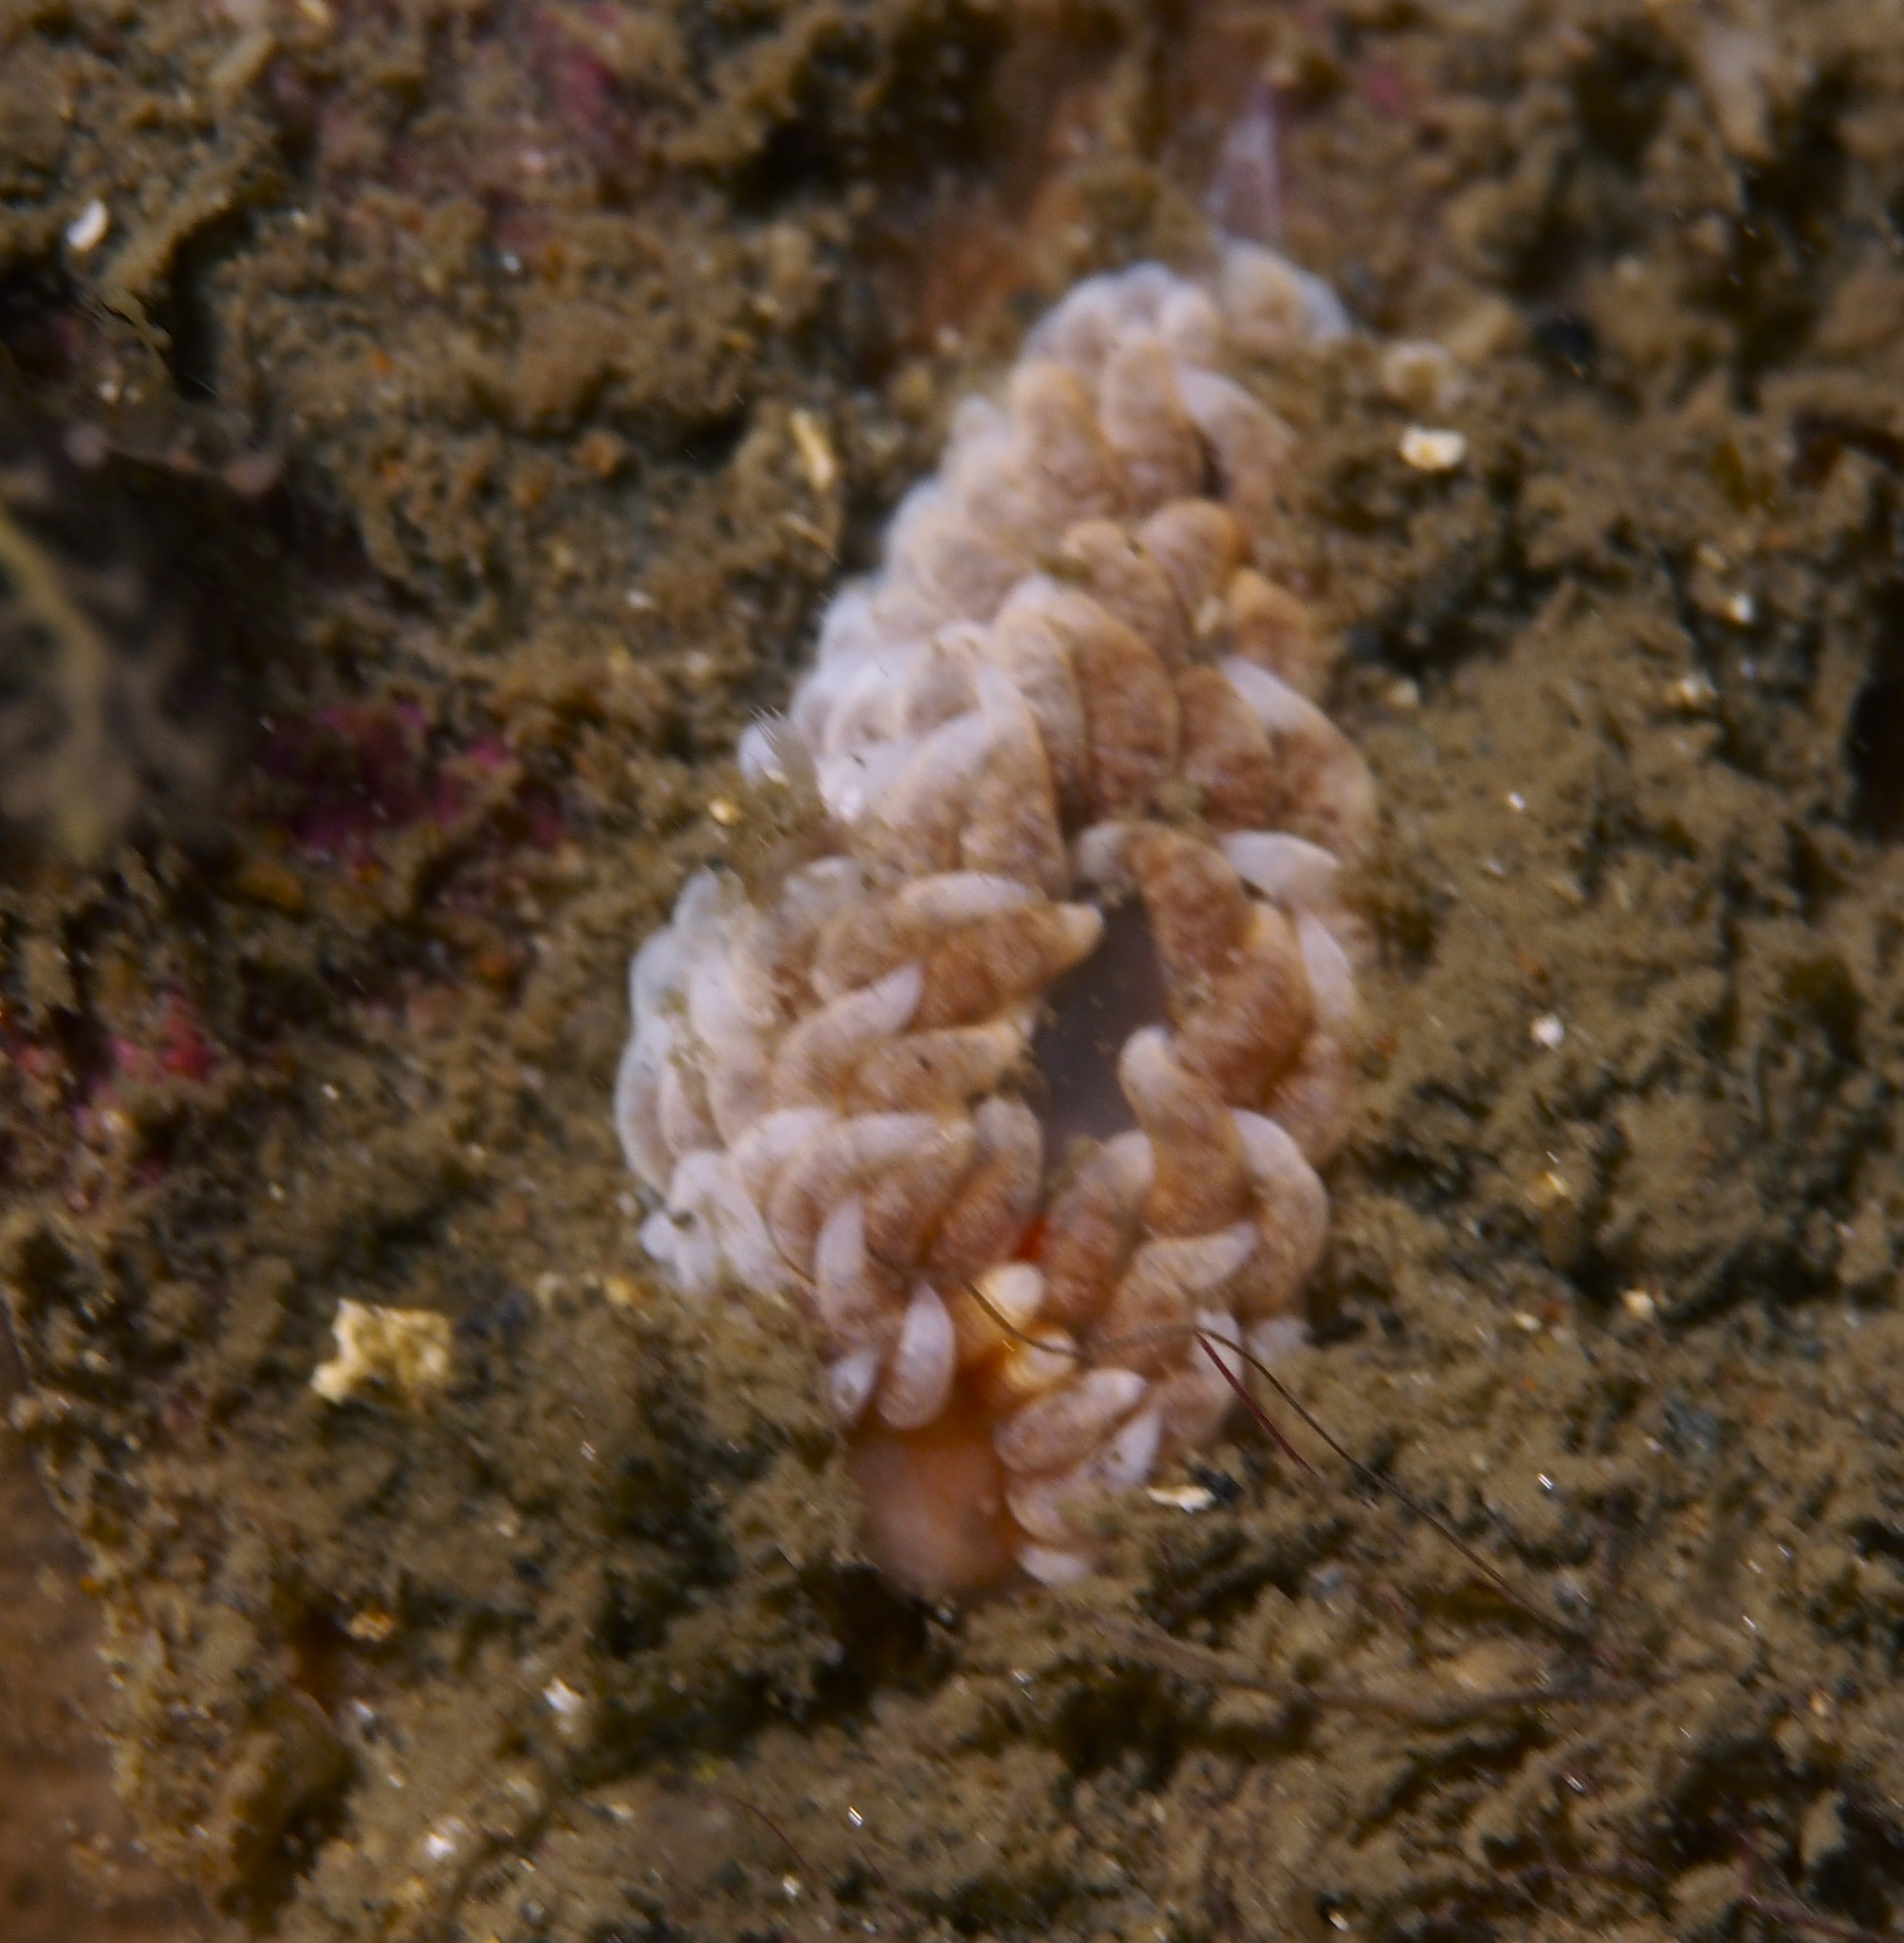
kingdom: Animalia
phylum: Mollusca
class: Gastropoda
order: Nudibranchia
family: Aeolidiidae
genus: Aeolidiella
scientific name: Aeolidiella glauca
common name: Orange-brown aeolid
